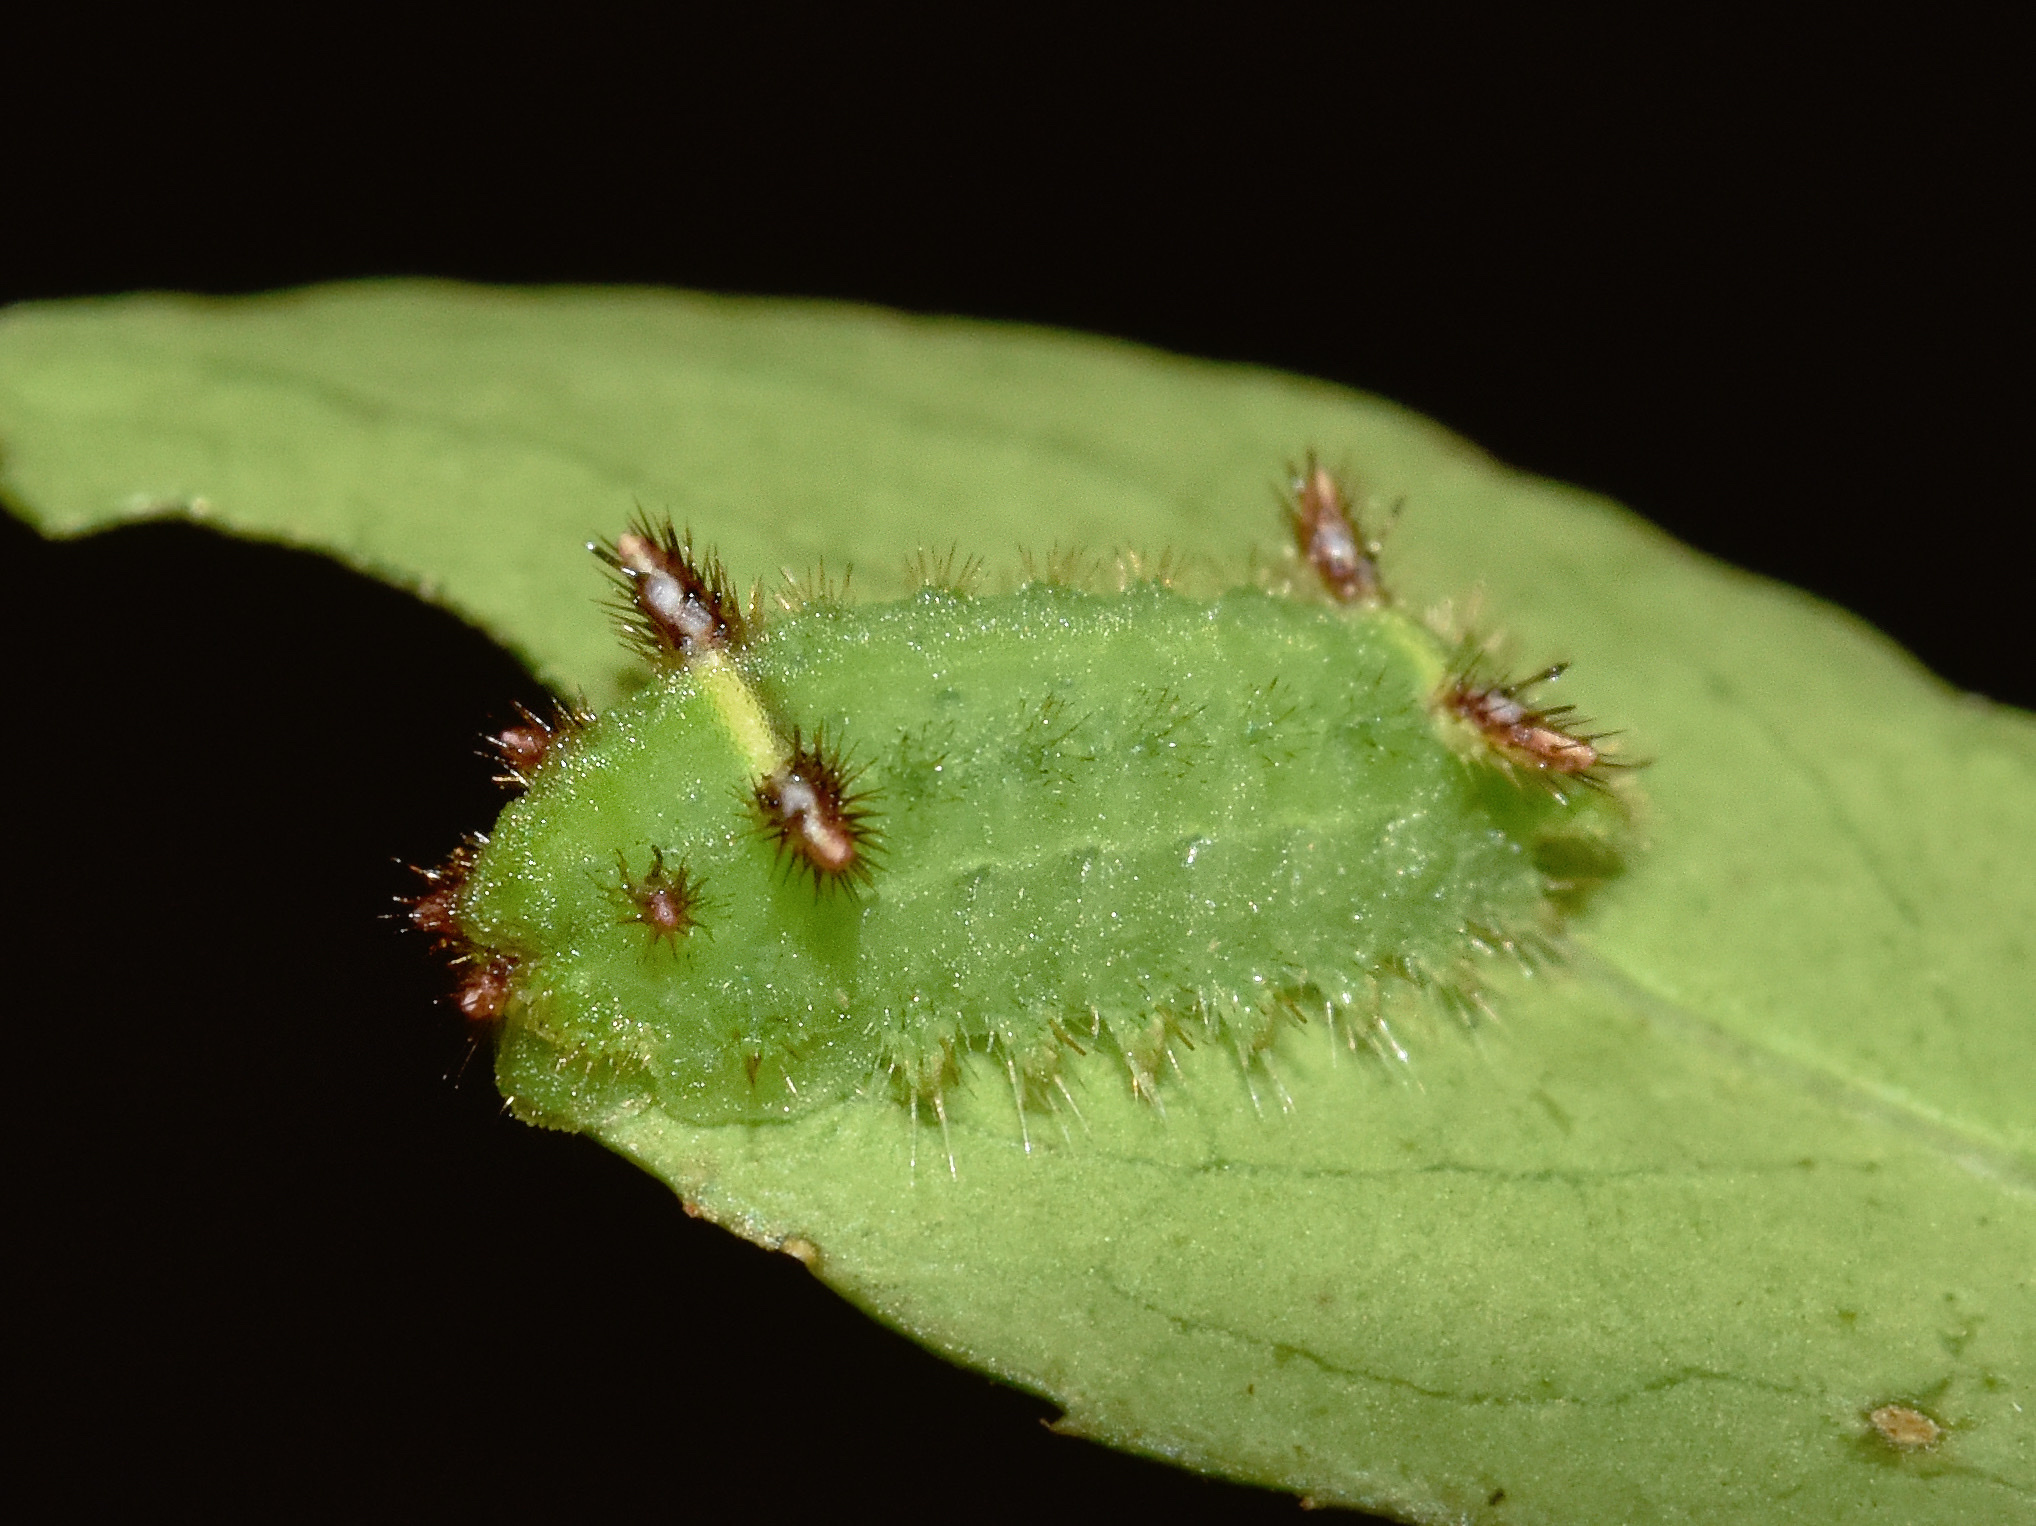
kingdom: Animalia
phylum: Arthropoda
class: Insecta
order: Lepidoptera
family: Limacodidae
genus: Afrobirthama
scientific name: Afrobirthama flaccidia
